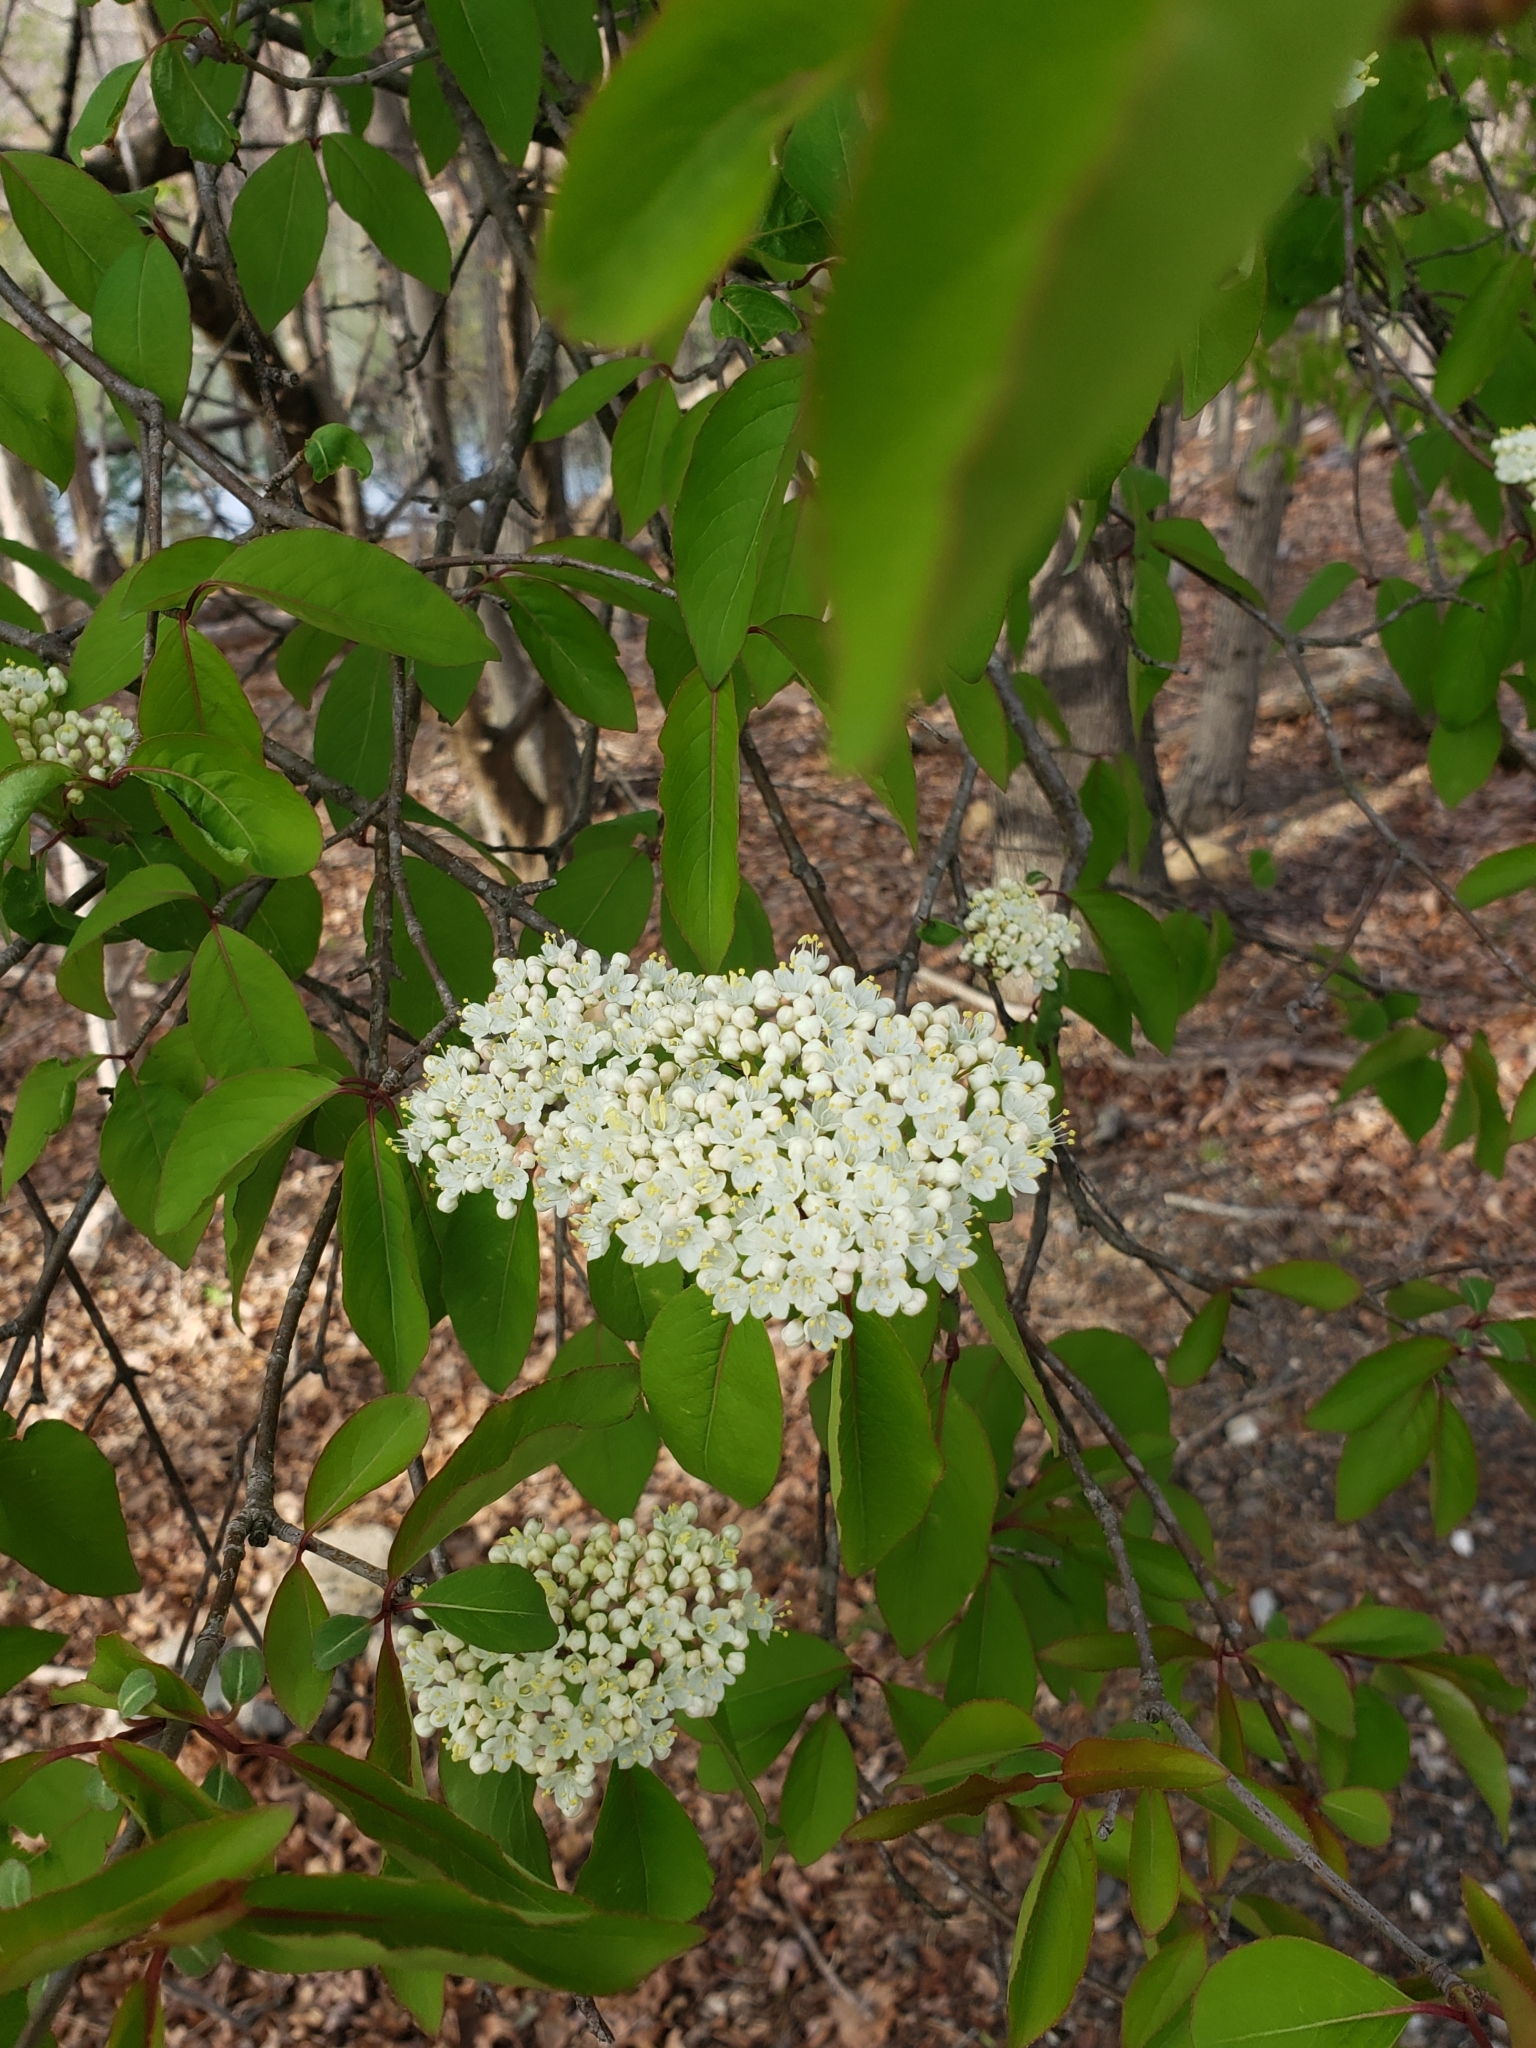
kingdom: Plantae
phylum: Tracheophyta
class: Magnoliopsida
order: Dipsacales
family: Viburnaceae
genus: Viburnum
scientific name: Viburnum prunifolium
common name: Black haw
